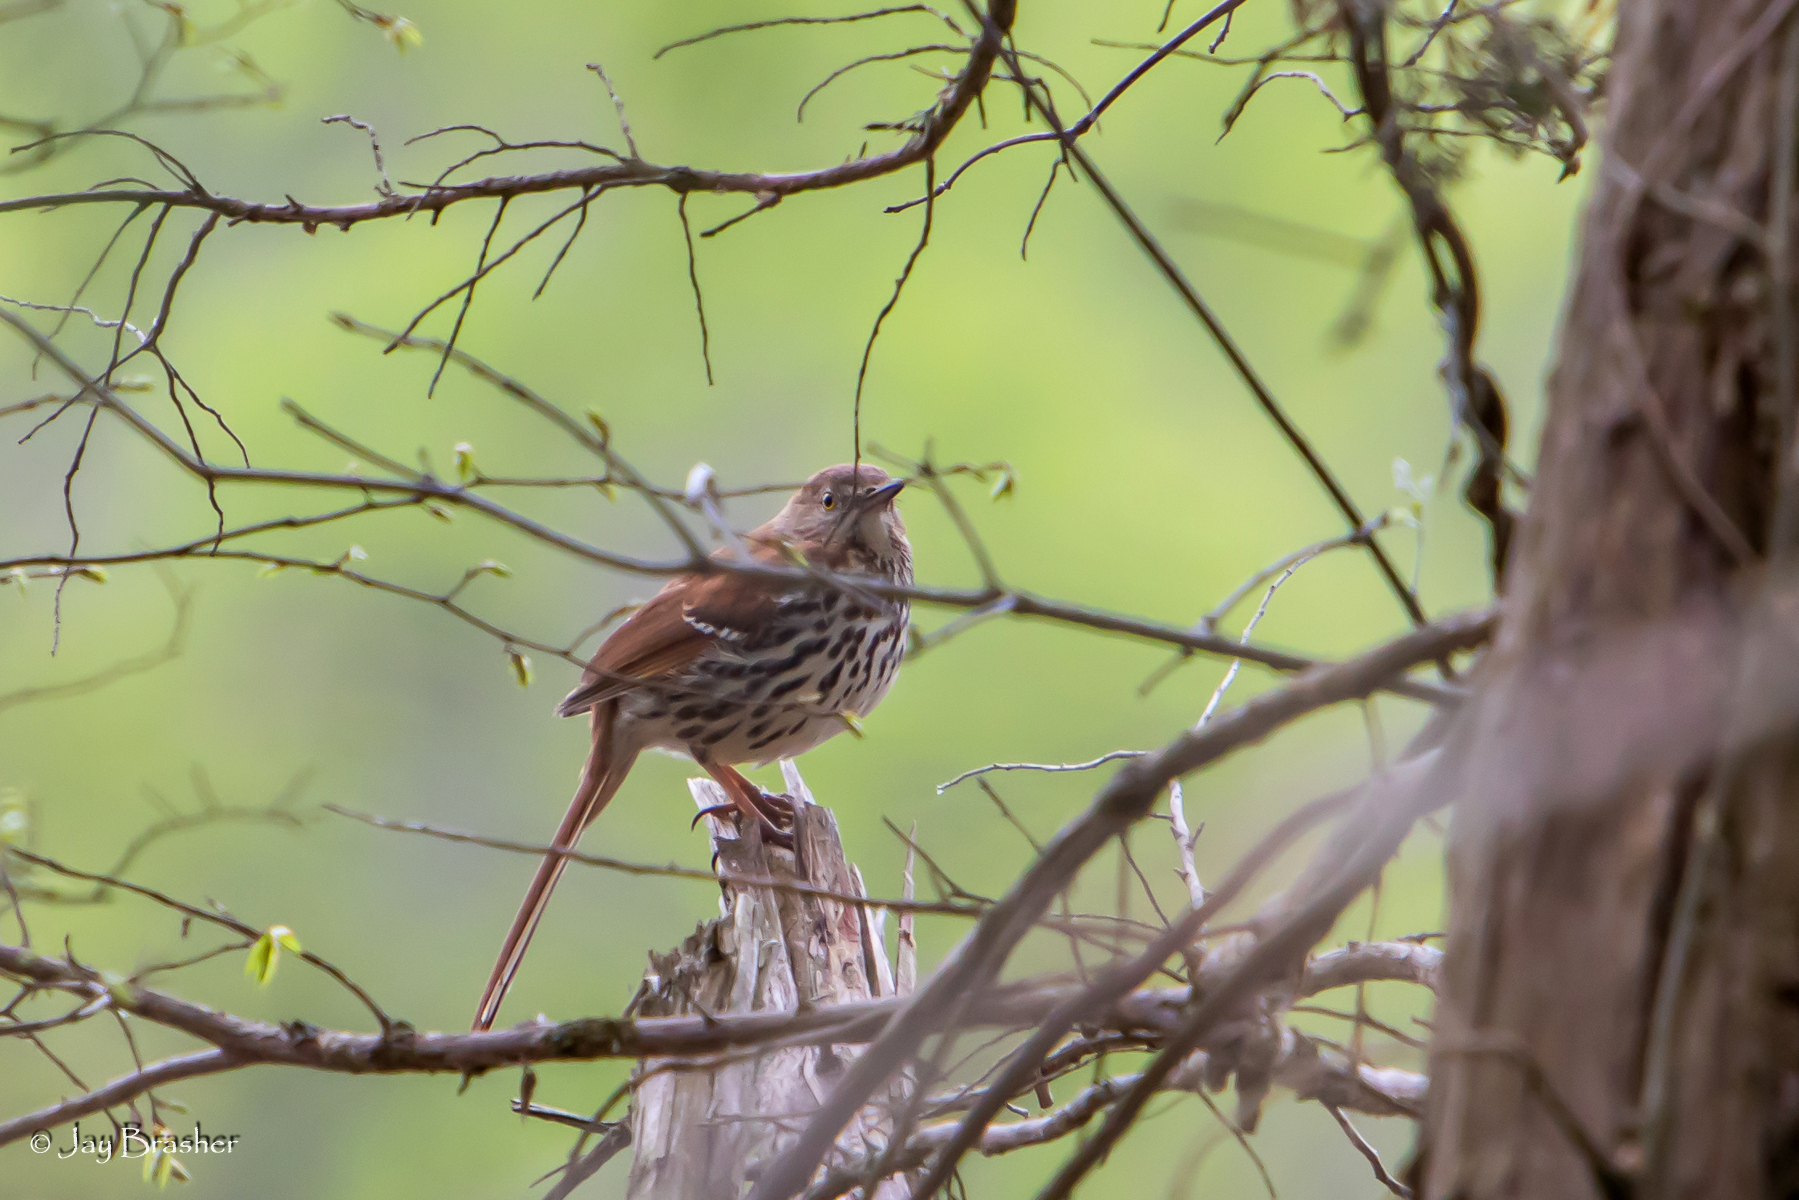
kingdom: Animalia
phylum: Chordata
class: Aves
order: Passeriformes
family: Mimidae
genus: Toxostoma
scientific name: Toxostoma rufum
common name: Brown thrasher
